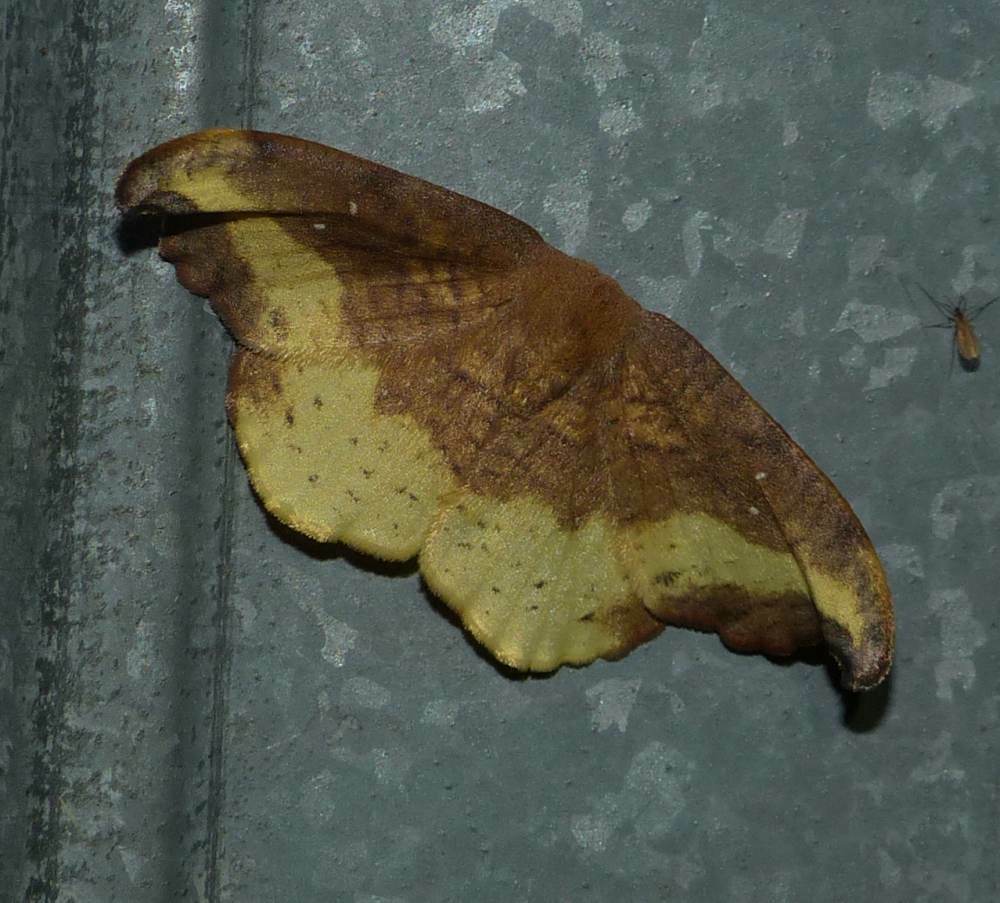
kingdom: Animalia
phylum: Arthropoda
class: Insecta
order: Lepidoptera
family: Drepanidae
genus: Oreta
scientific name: Oreta rosea
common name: Rose hooktip
